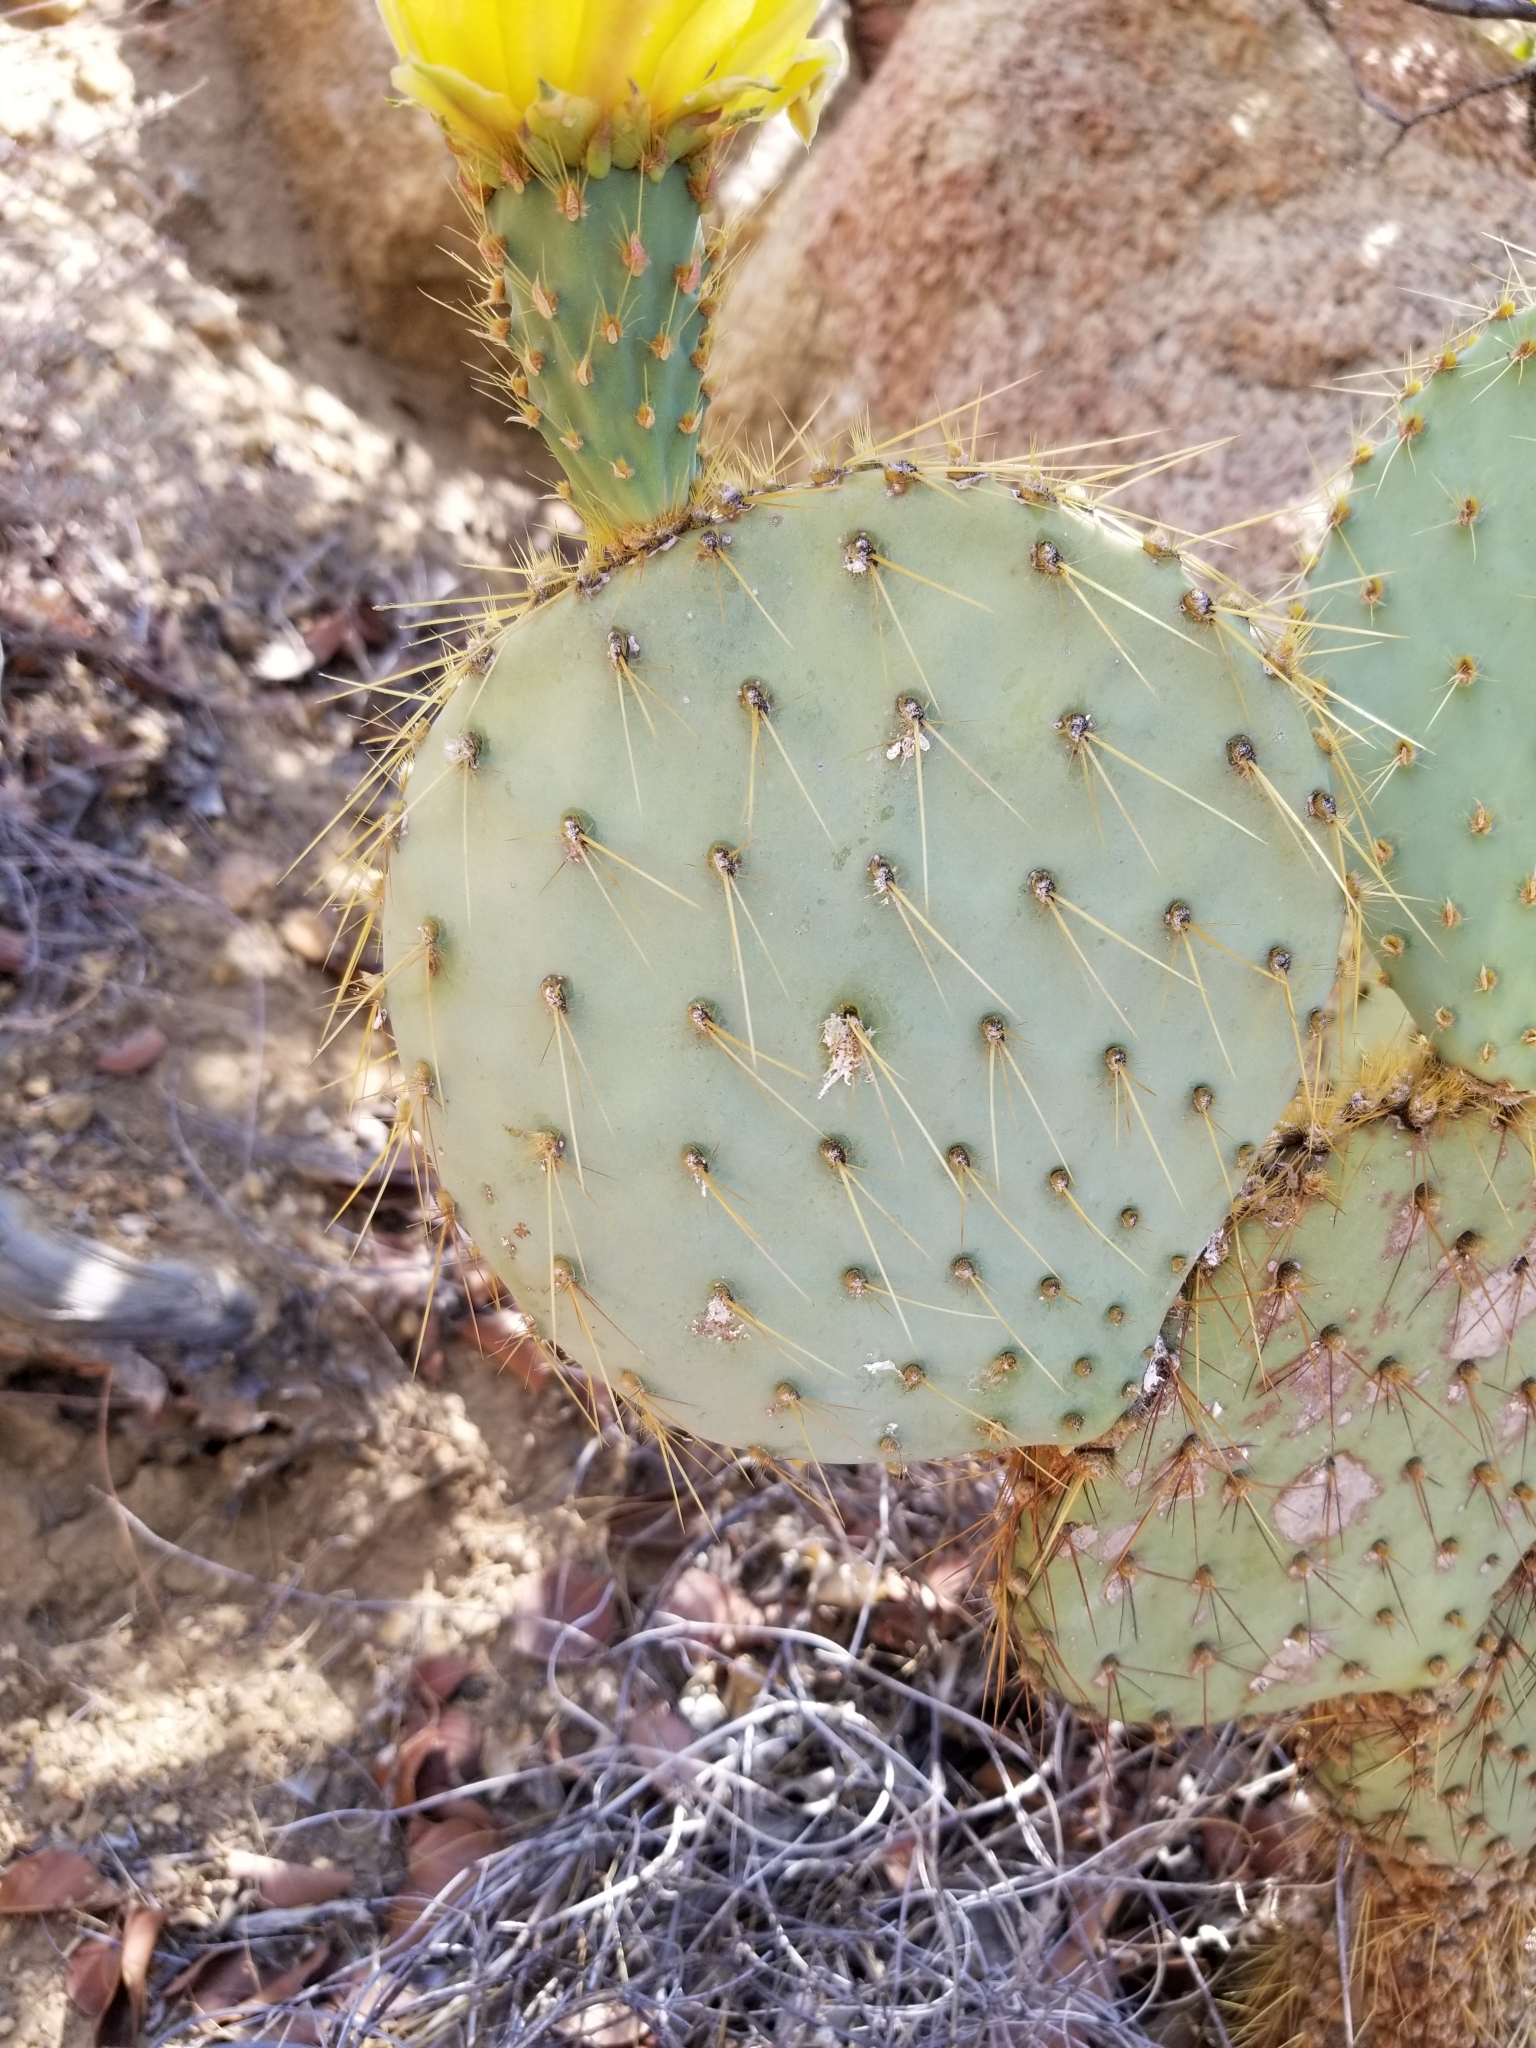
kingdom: Plantae
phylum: Tracheophyta
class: Magnoliopsida
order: Caryophyllales
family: Cactaceae
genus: Opuntia
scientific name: Opuntia chlorotica
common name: Dollar-joint prickly-pear
